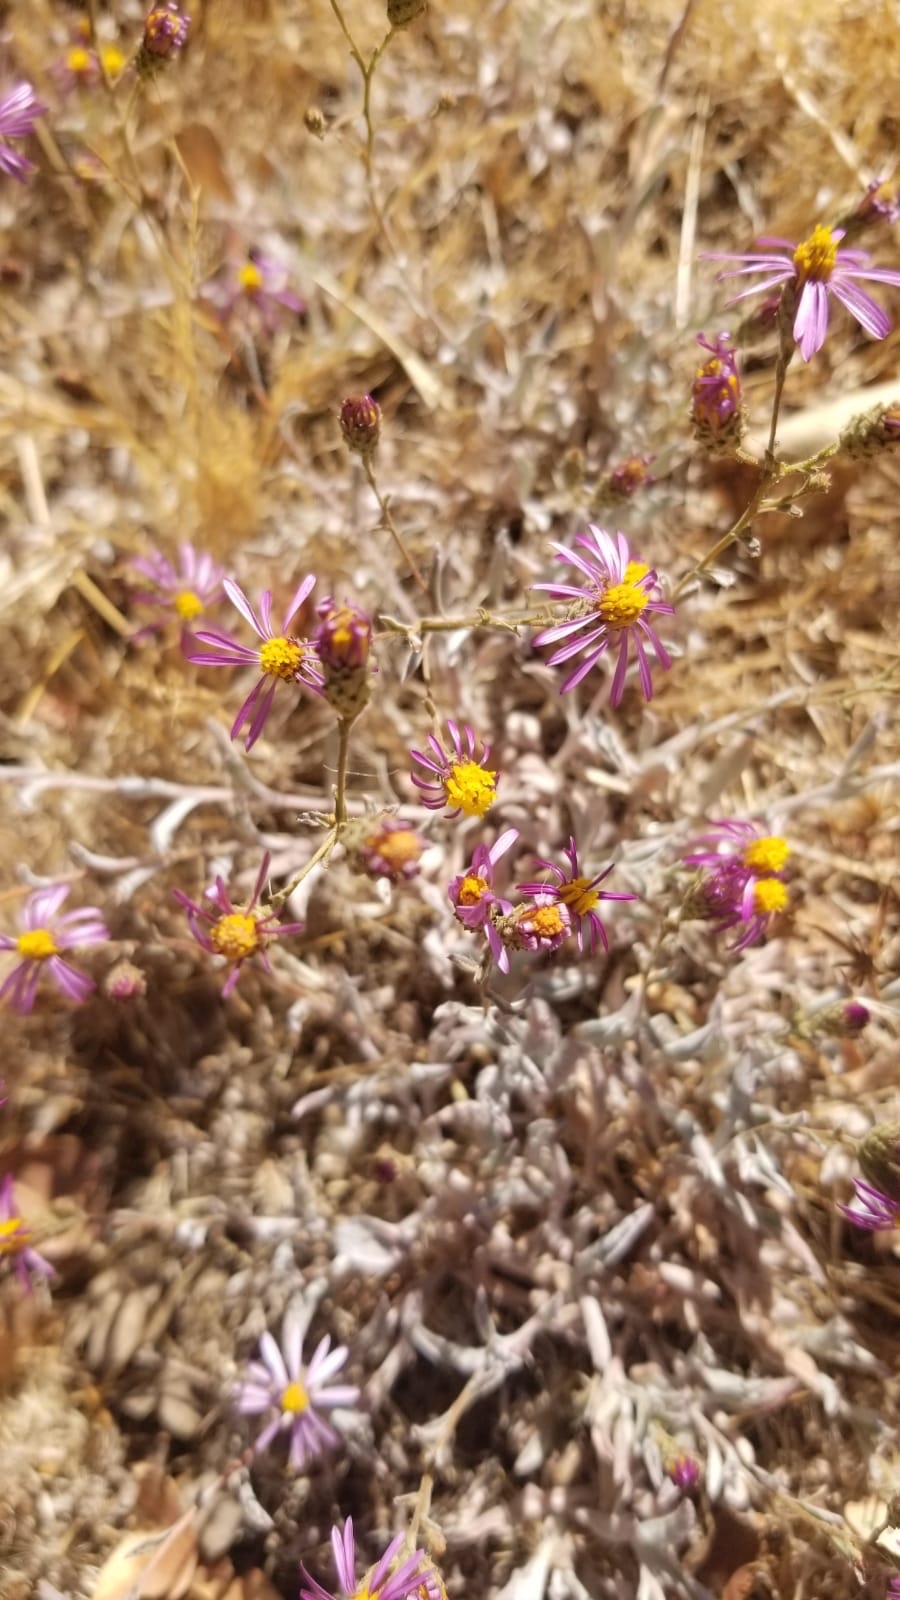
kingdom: Plantae
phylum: Tracheophyta
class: Magnoliopsida
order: Asterales
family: Asteraceae
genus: Corethrogyne
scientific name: Corethrogyne filaginifolia
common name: Sand-aster
